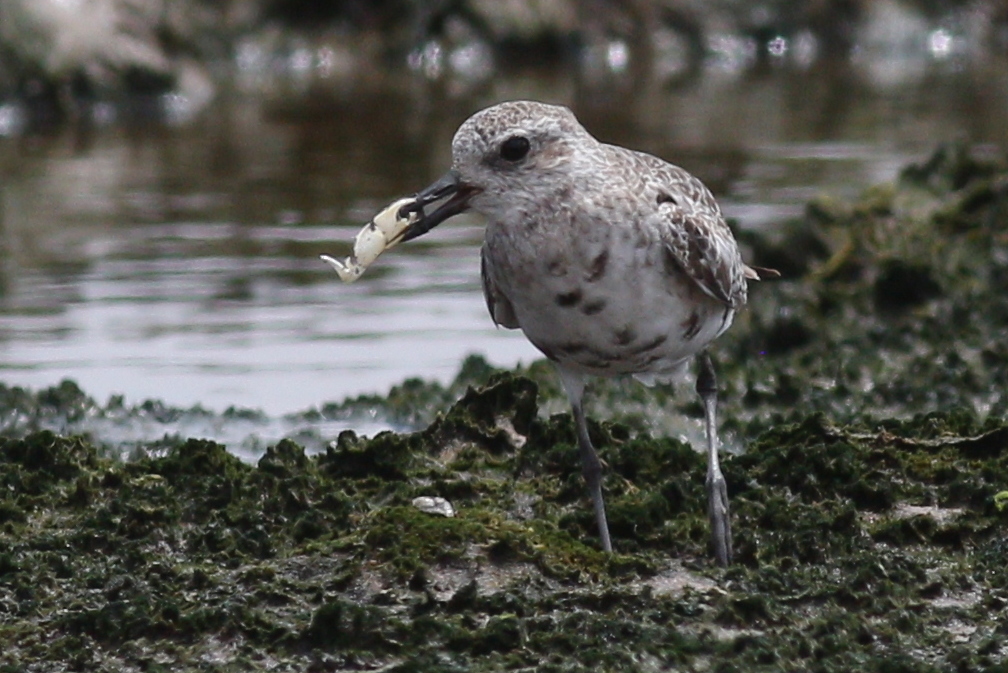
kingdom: Animalia
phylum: Chordata
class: Aves
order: Charadriiformes
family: Charadriidae
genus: Pluvialis
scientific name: Pluvialis squatarola
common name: Grey plover
